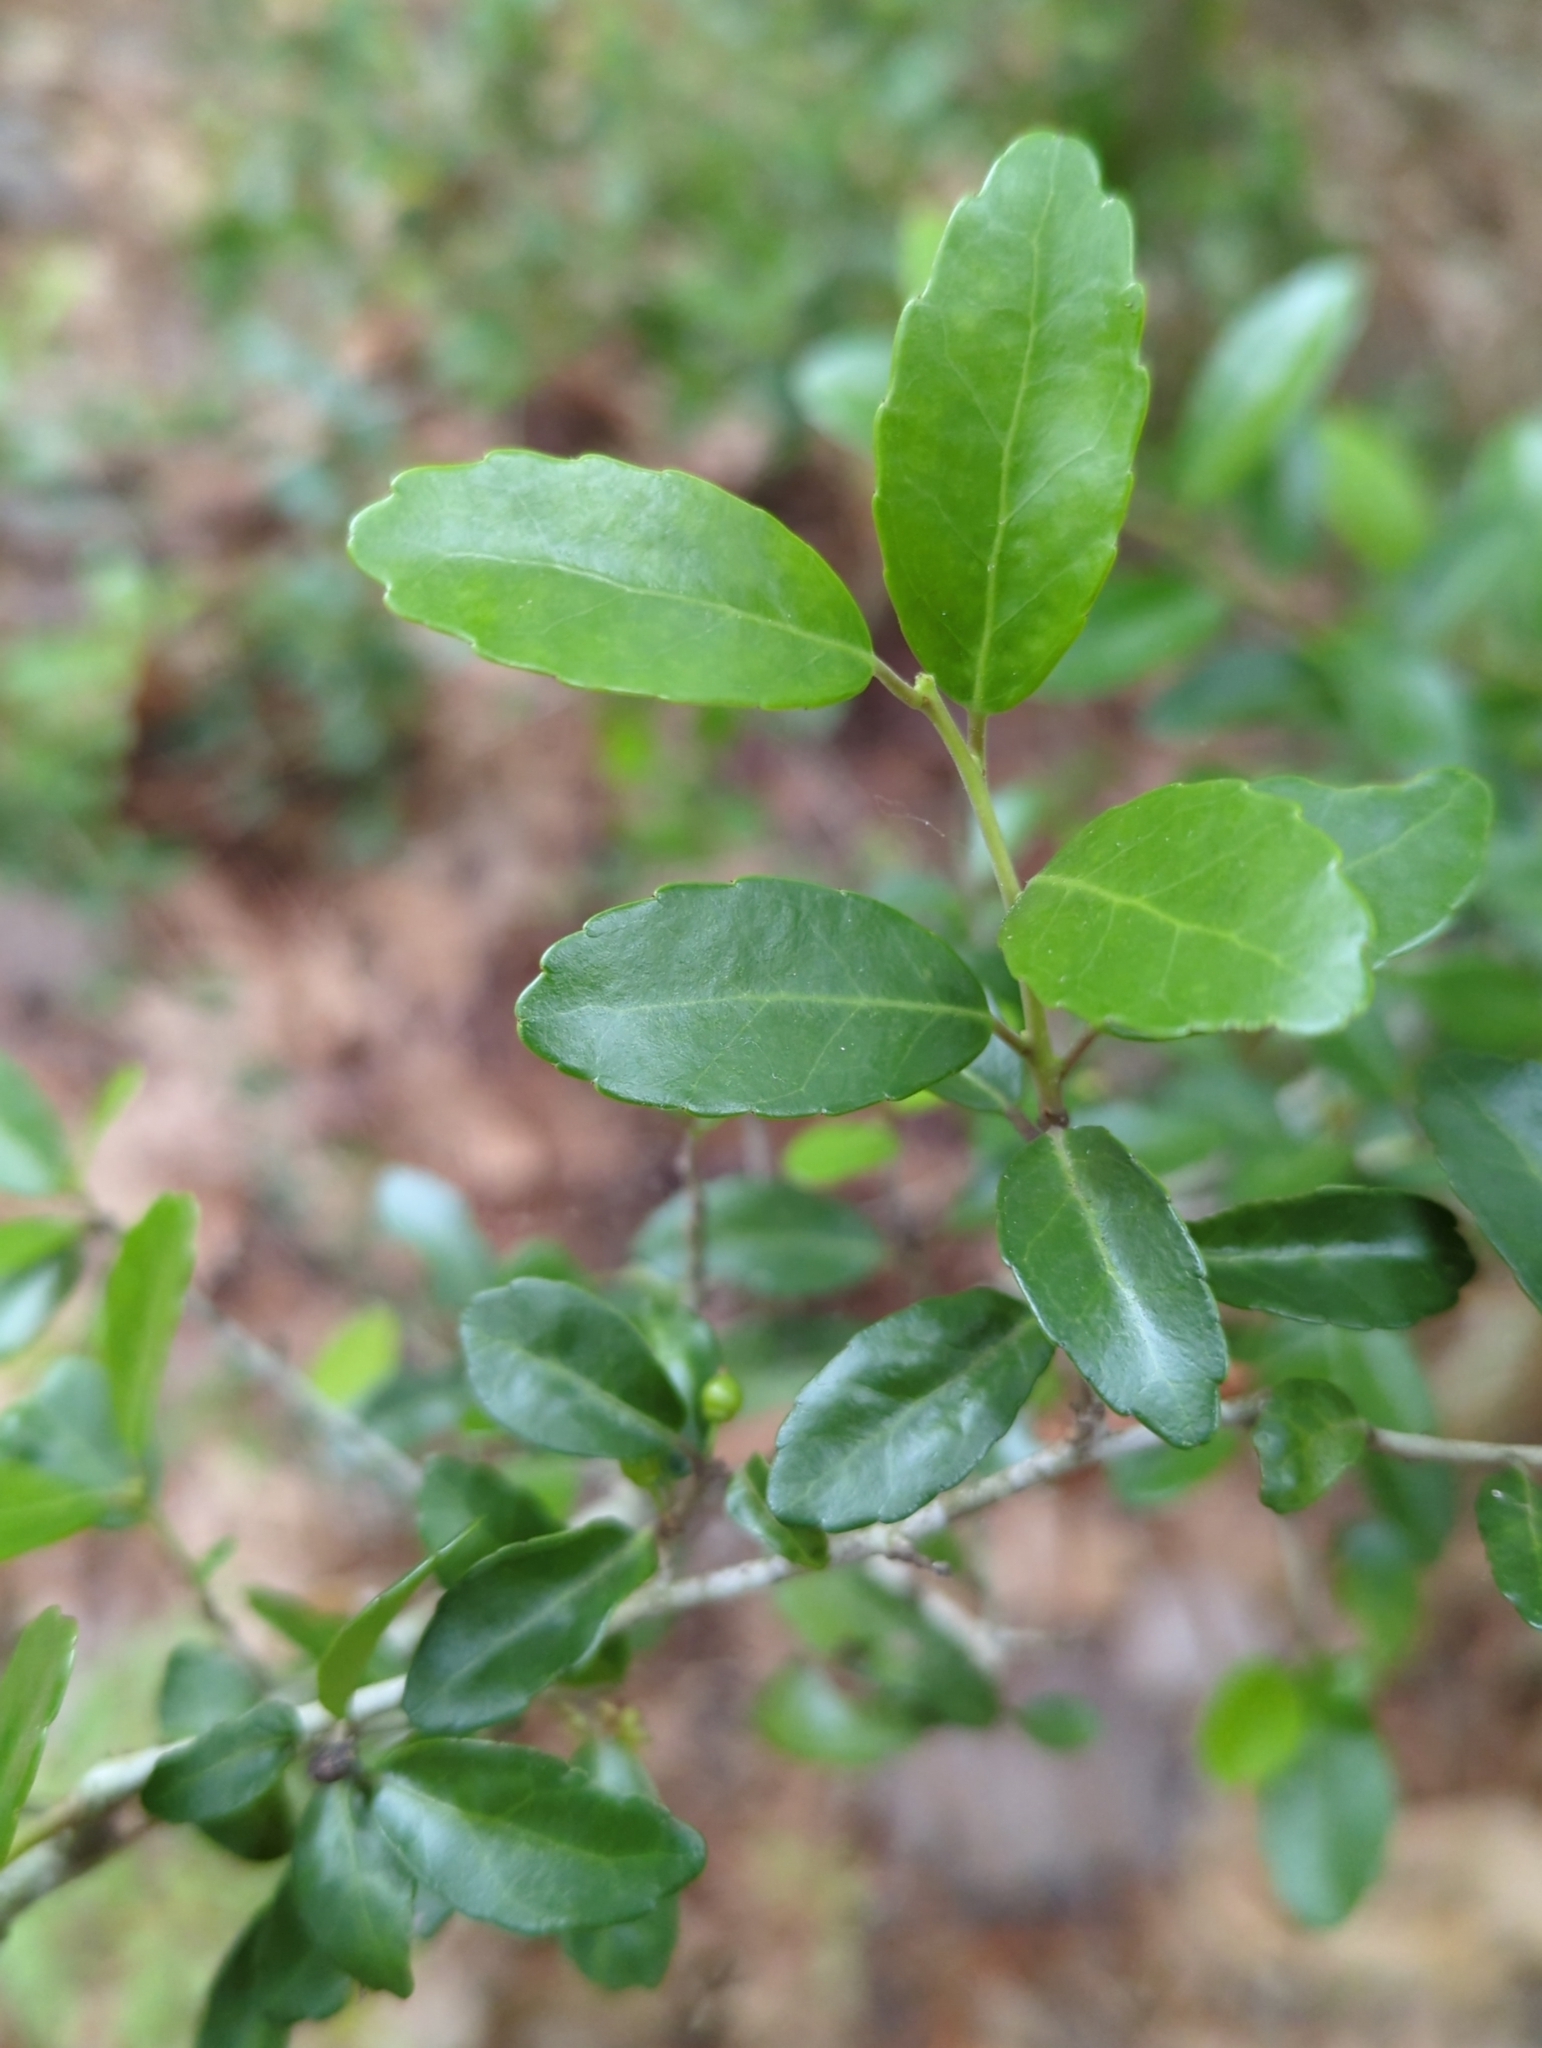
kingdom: Plantae
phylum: Tracheophyta
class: Magnoliopsida
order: Aquifoliales
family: Aquifoliaceae
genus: Ilex
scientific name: Ilex vomitoria
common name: Yaupon holly
